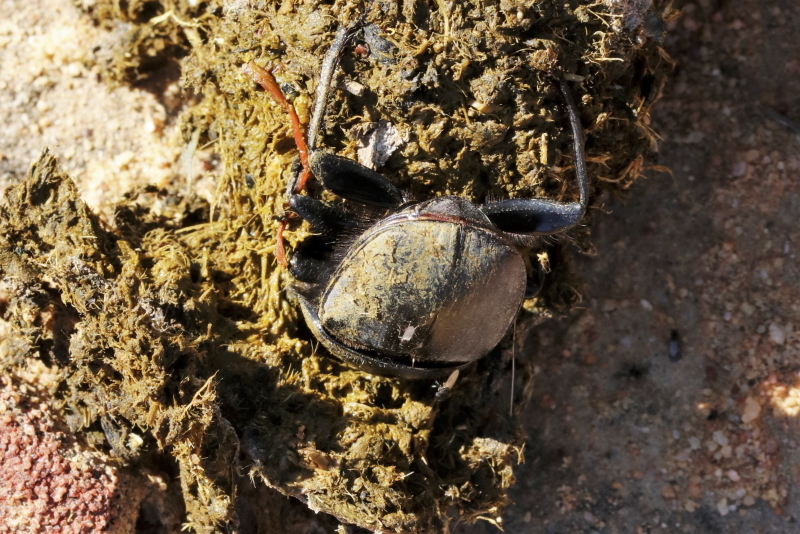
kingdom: Animalia
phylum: Arthropoda
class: Insecta
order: Coleoptera
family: Scarabaeidae
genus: Kheper
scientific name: Kheper bonellii
